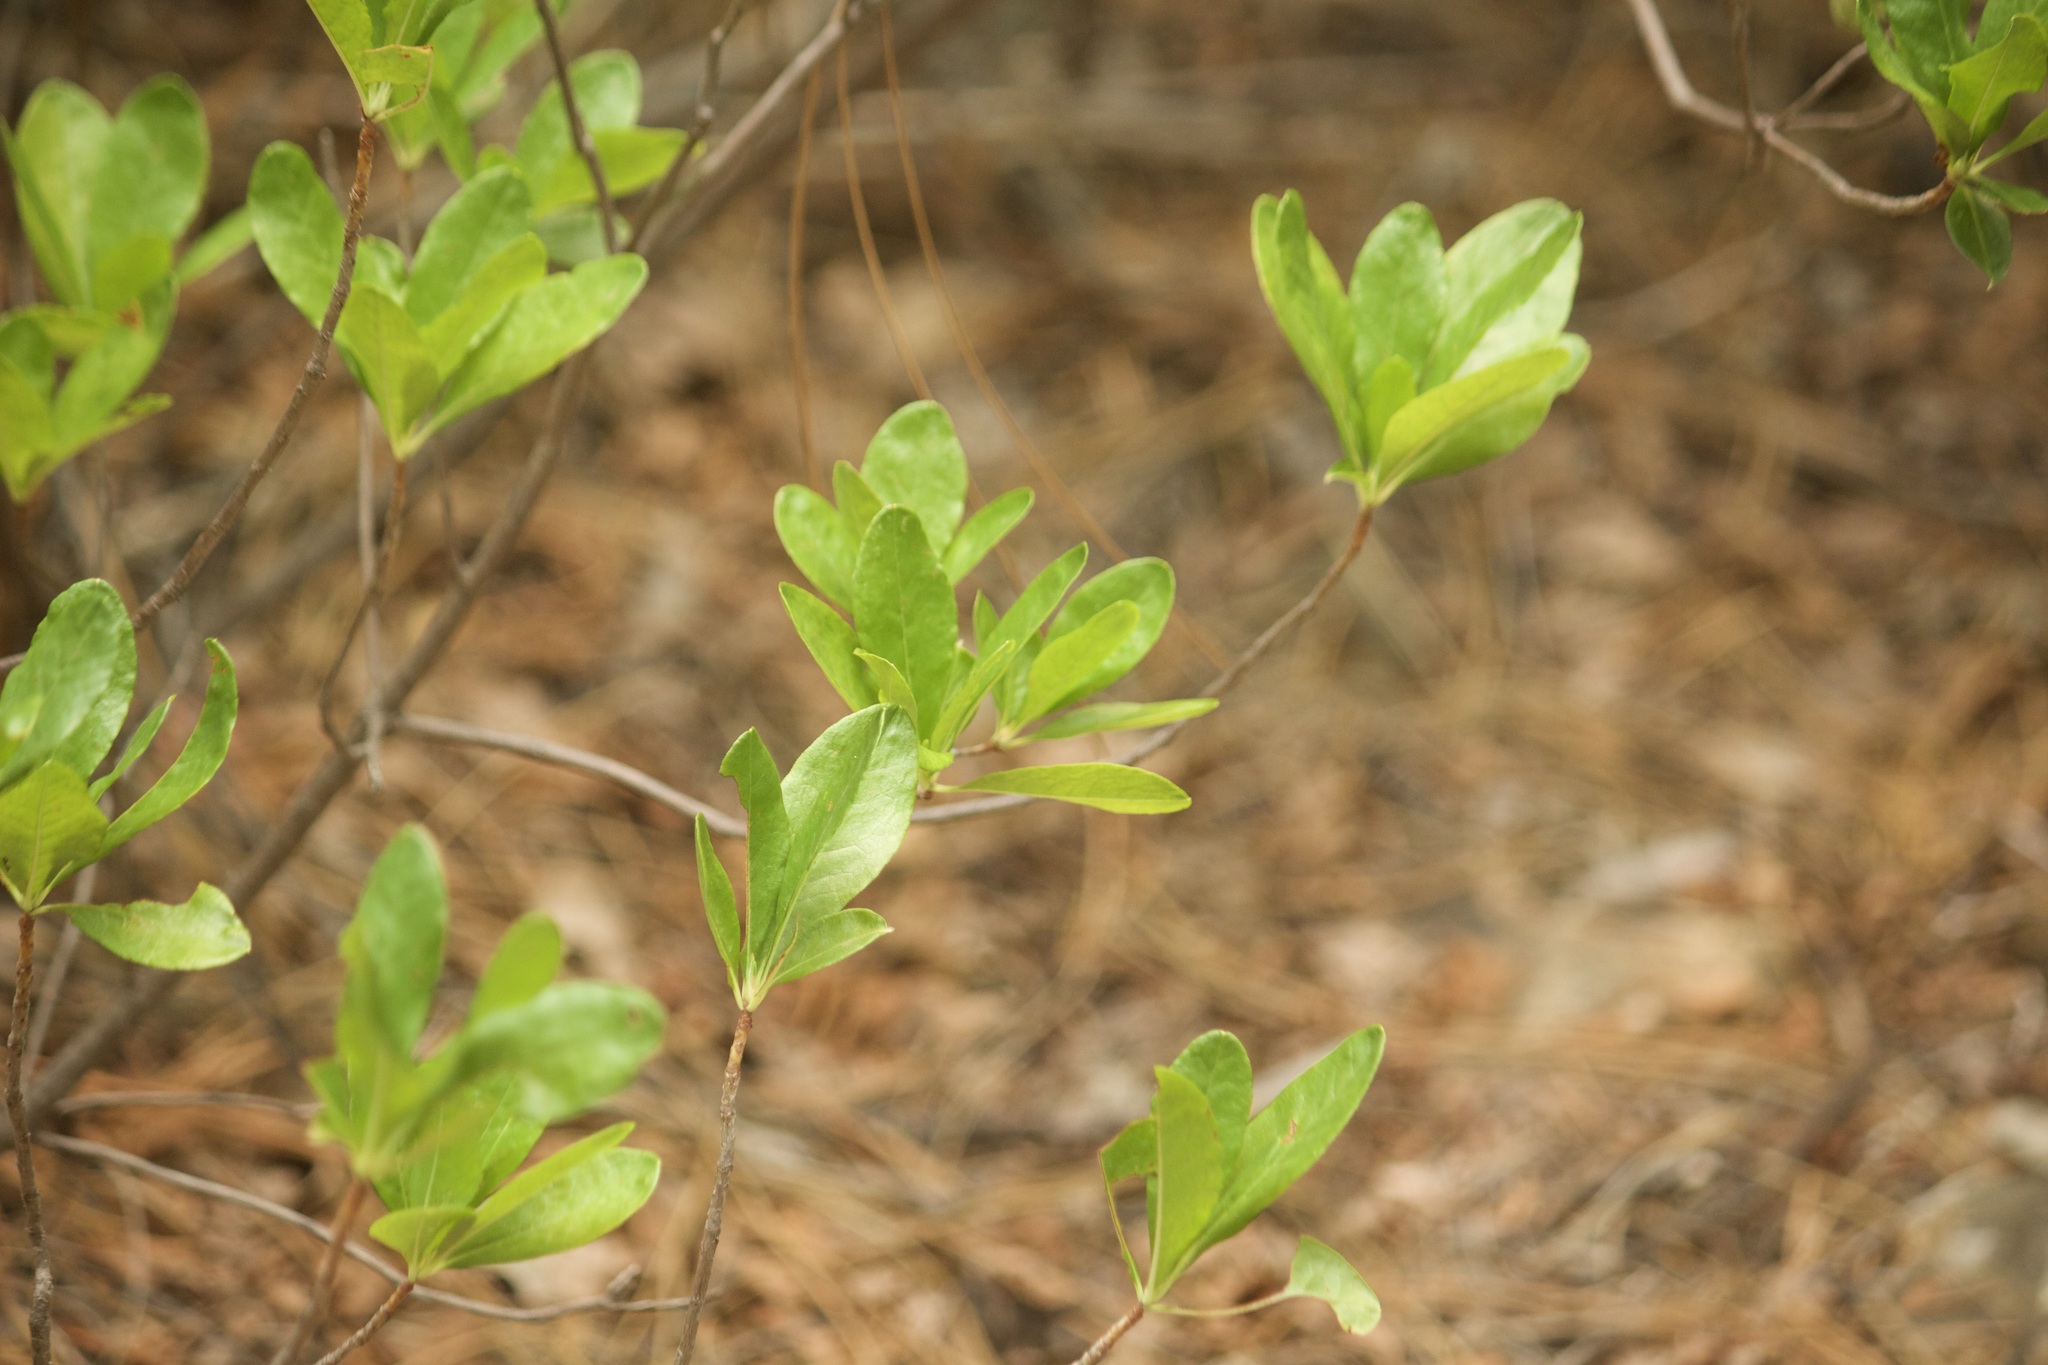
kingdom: Plantae
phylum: Tracheophyta
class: Magnoliopsida
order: Ericales
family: Ericaceae
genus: Rhododendron
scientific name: Rhododendron occidentale
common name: Western azalea
